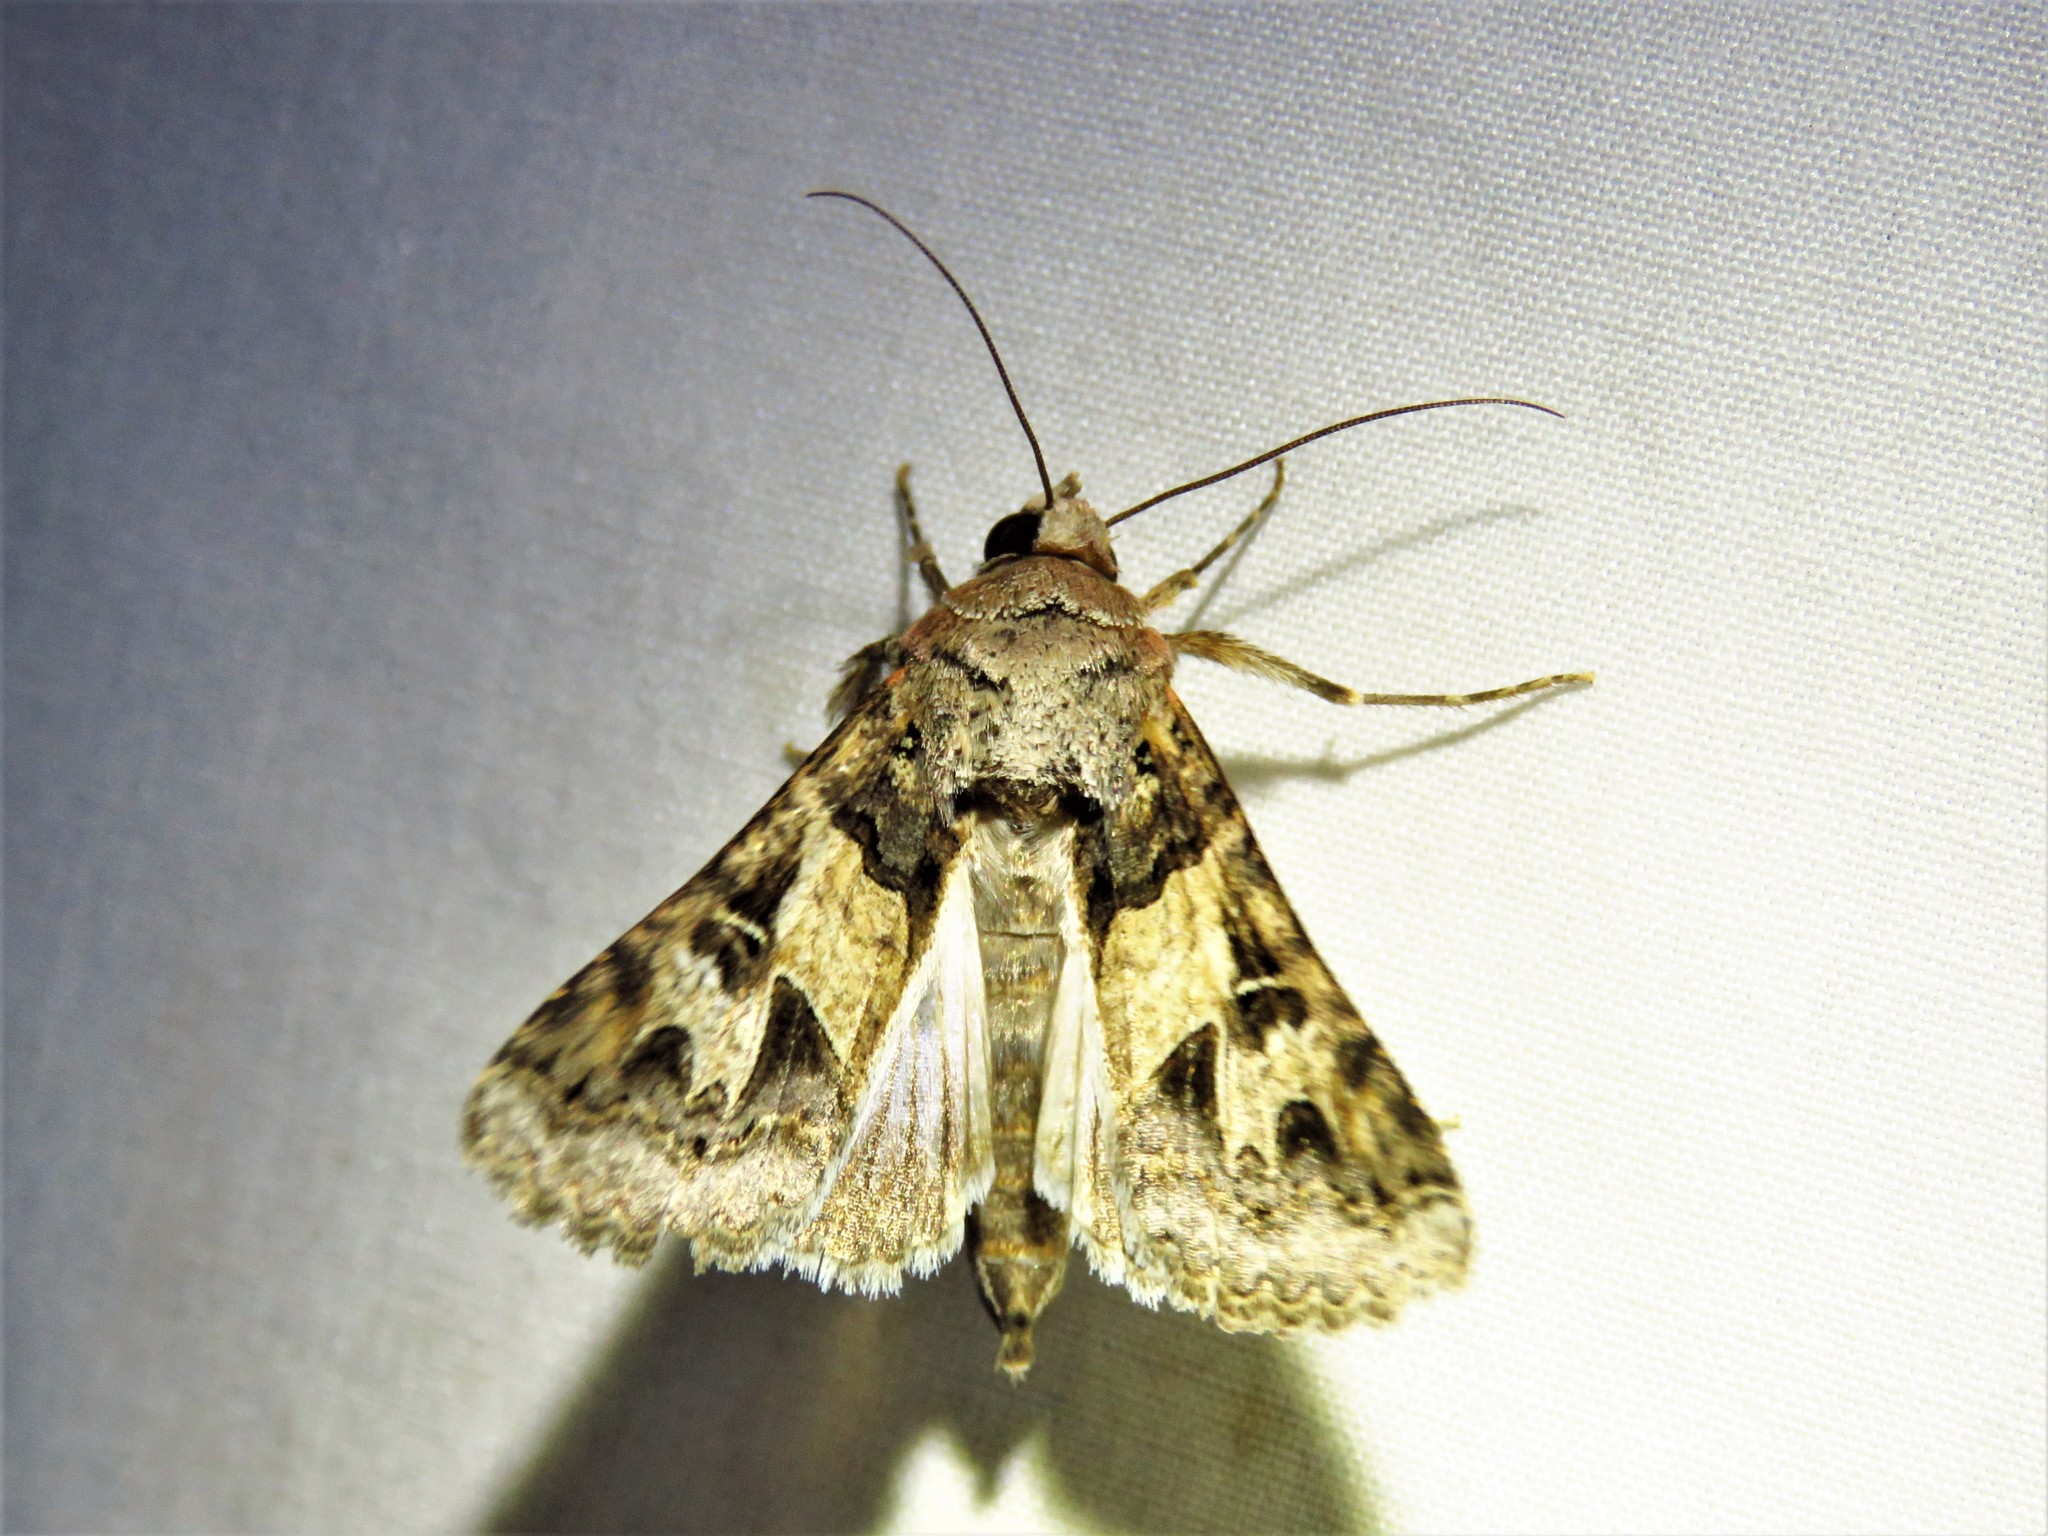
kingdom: Animalia
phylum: Arthropoda
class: Insecta
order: Lepidoptera
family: Erebidae
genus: Melipotis
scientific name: Melipotis novanda
